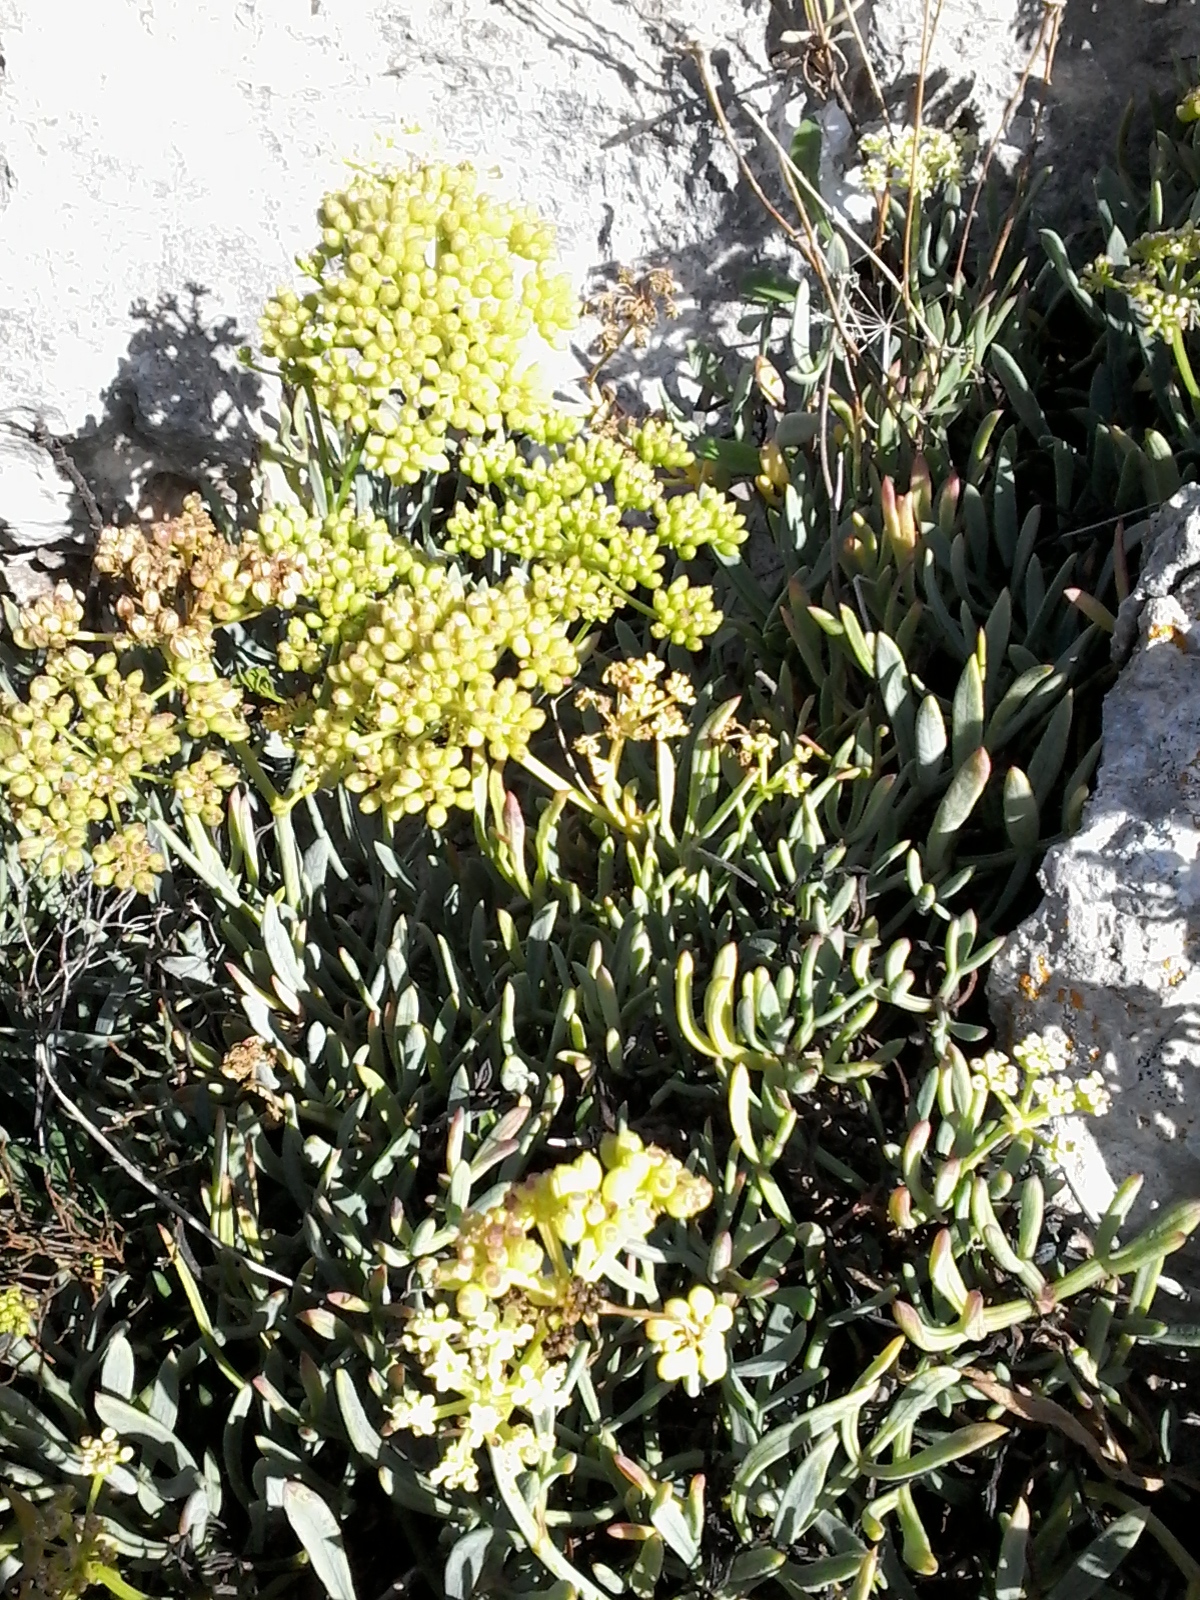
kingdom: Plantae
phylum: Tracheophyta
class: Magnoliopsida
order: Apiales
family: Apiaceae
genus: Crithmum
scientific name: Crithmum maritimum
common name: Rock samphire
